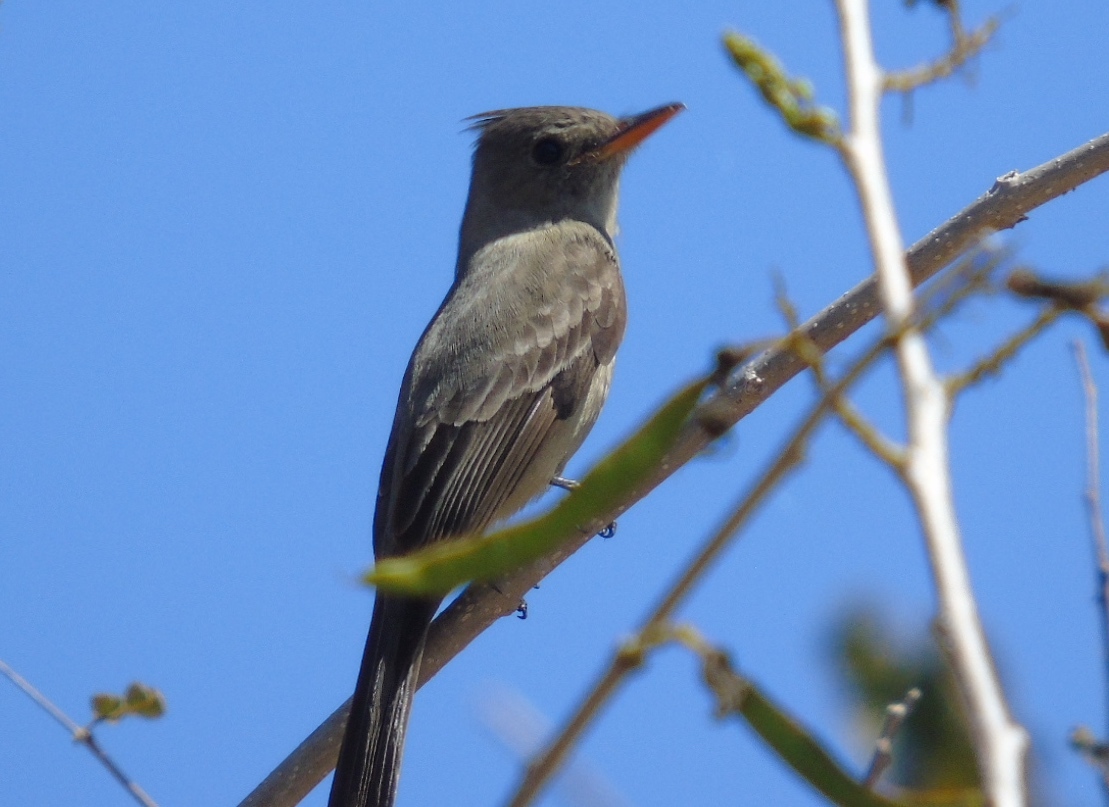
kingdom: Animalia
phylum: Chordata
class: Aves
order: Passeriformes
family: Tyrannidae
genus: Contopus
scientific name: Contopus pertinax
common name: Greater pewee
